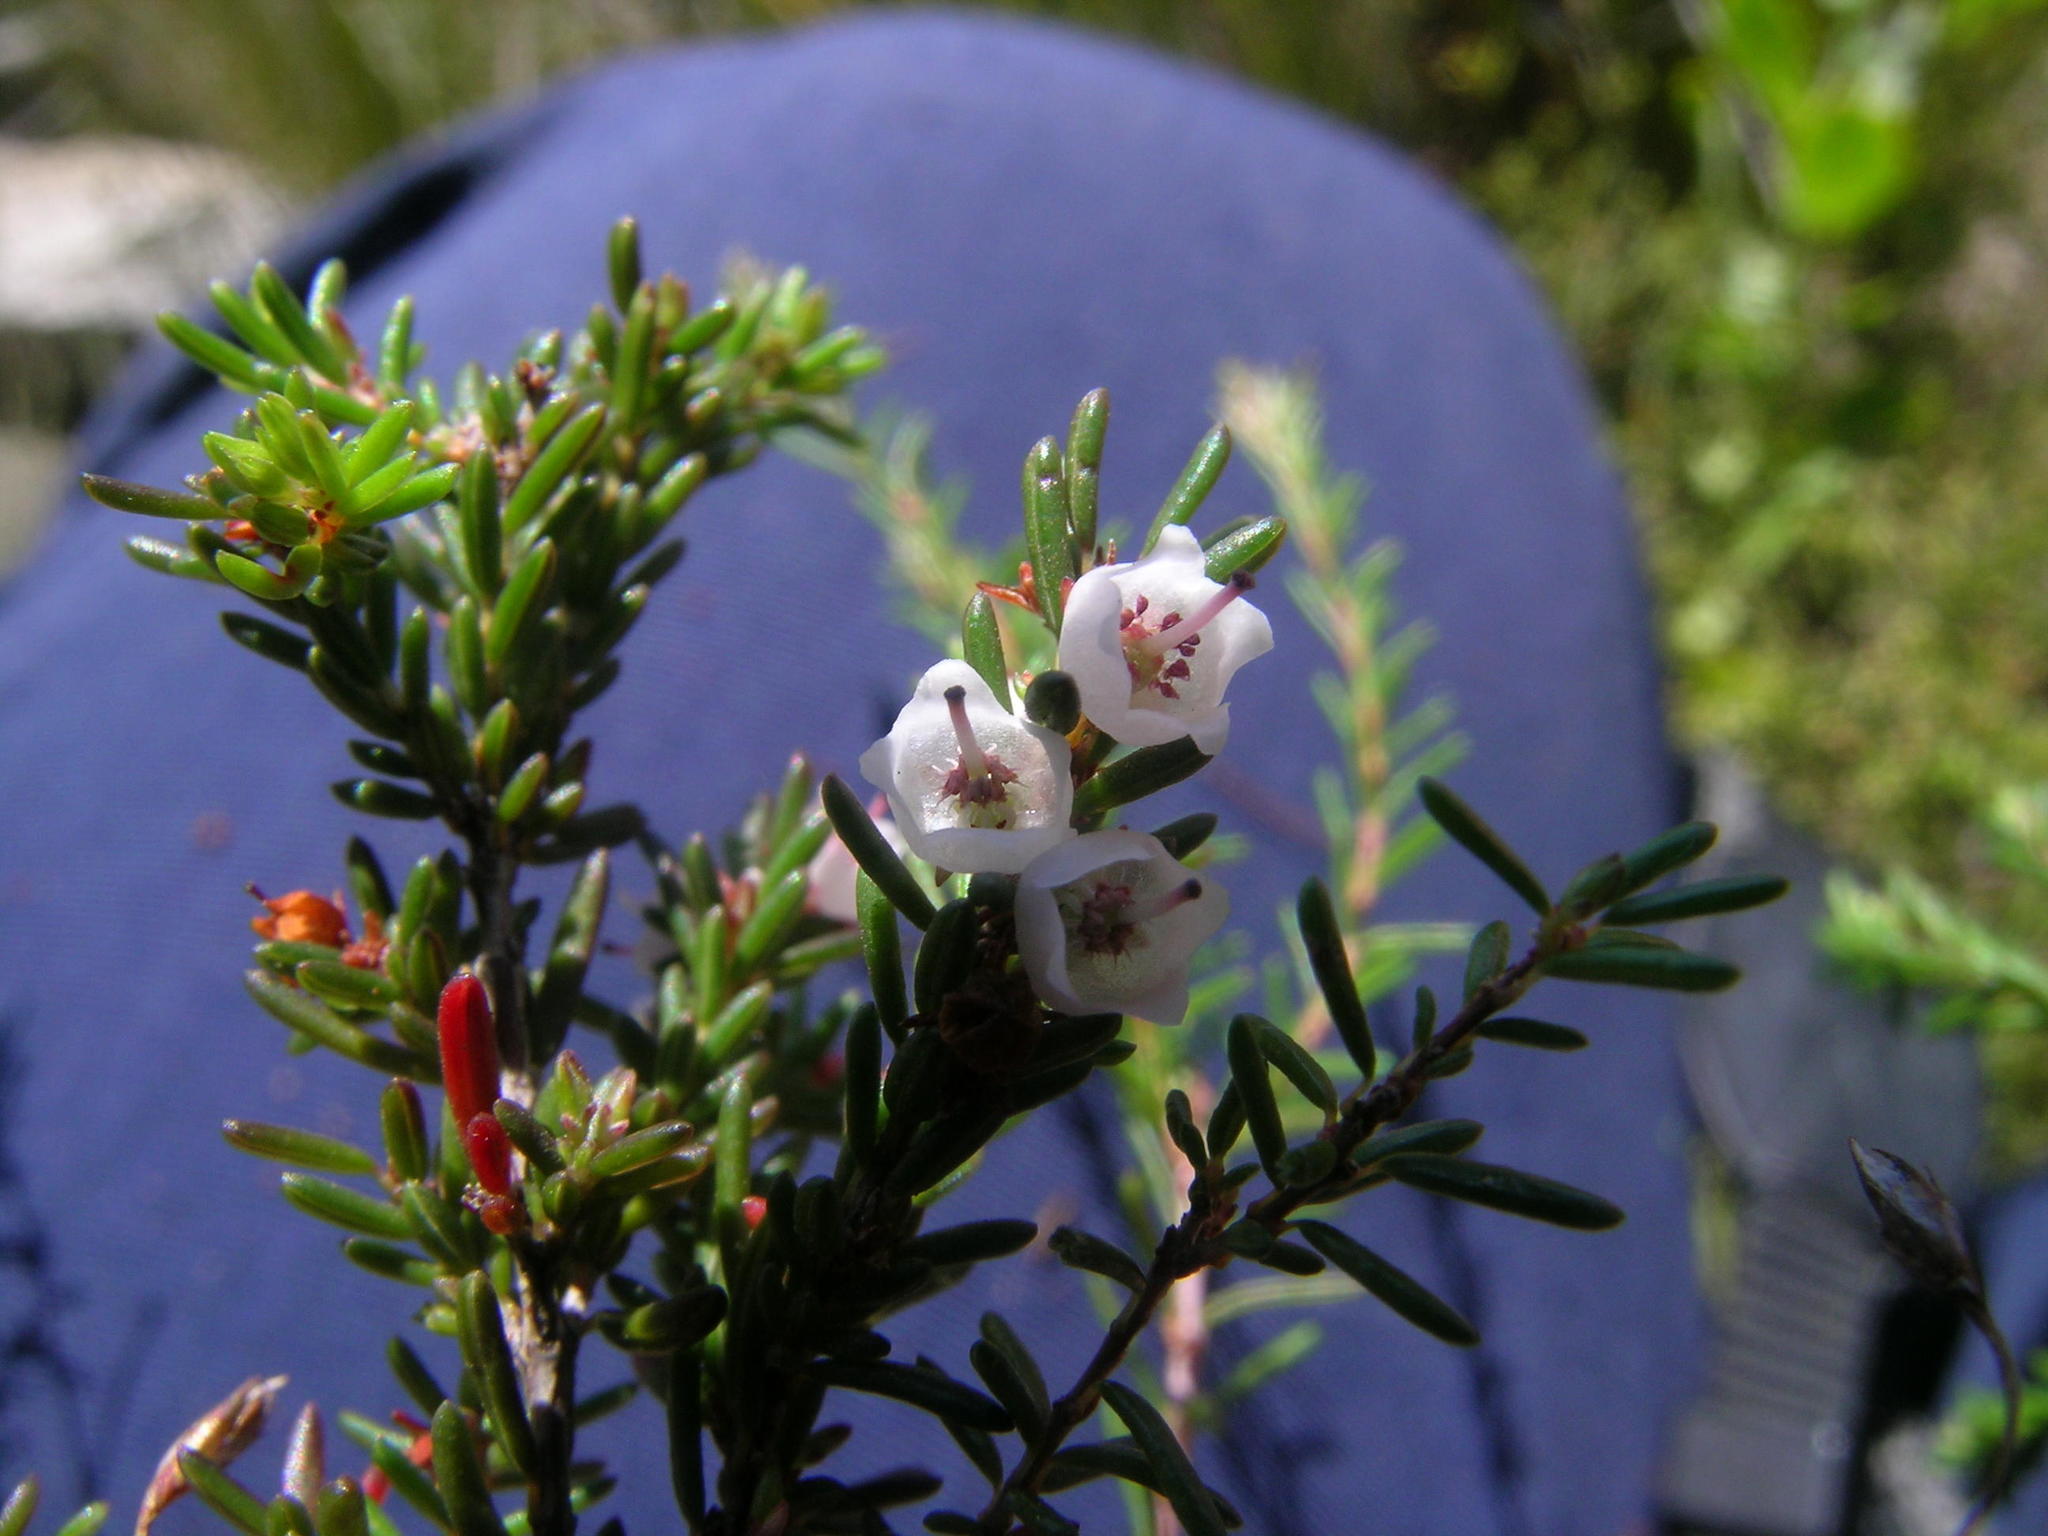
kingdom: Plantae
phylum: Tracheophyta
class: Magnoliopsida
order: Ericales
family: Ericaceae
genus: Erica
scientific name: Erica tenuis
